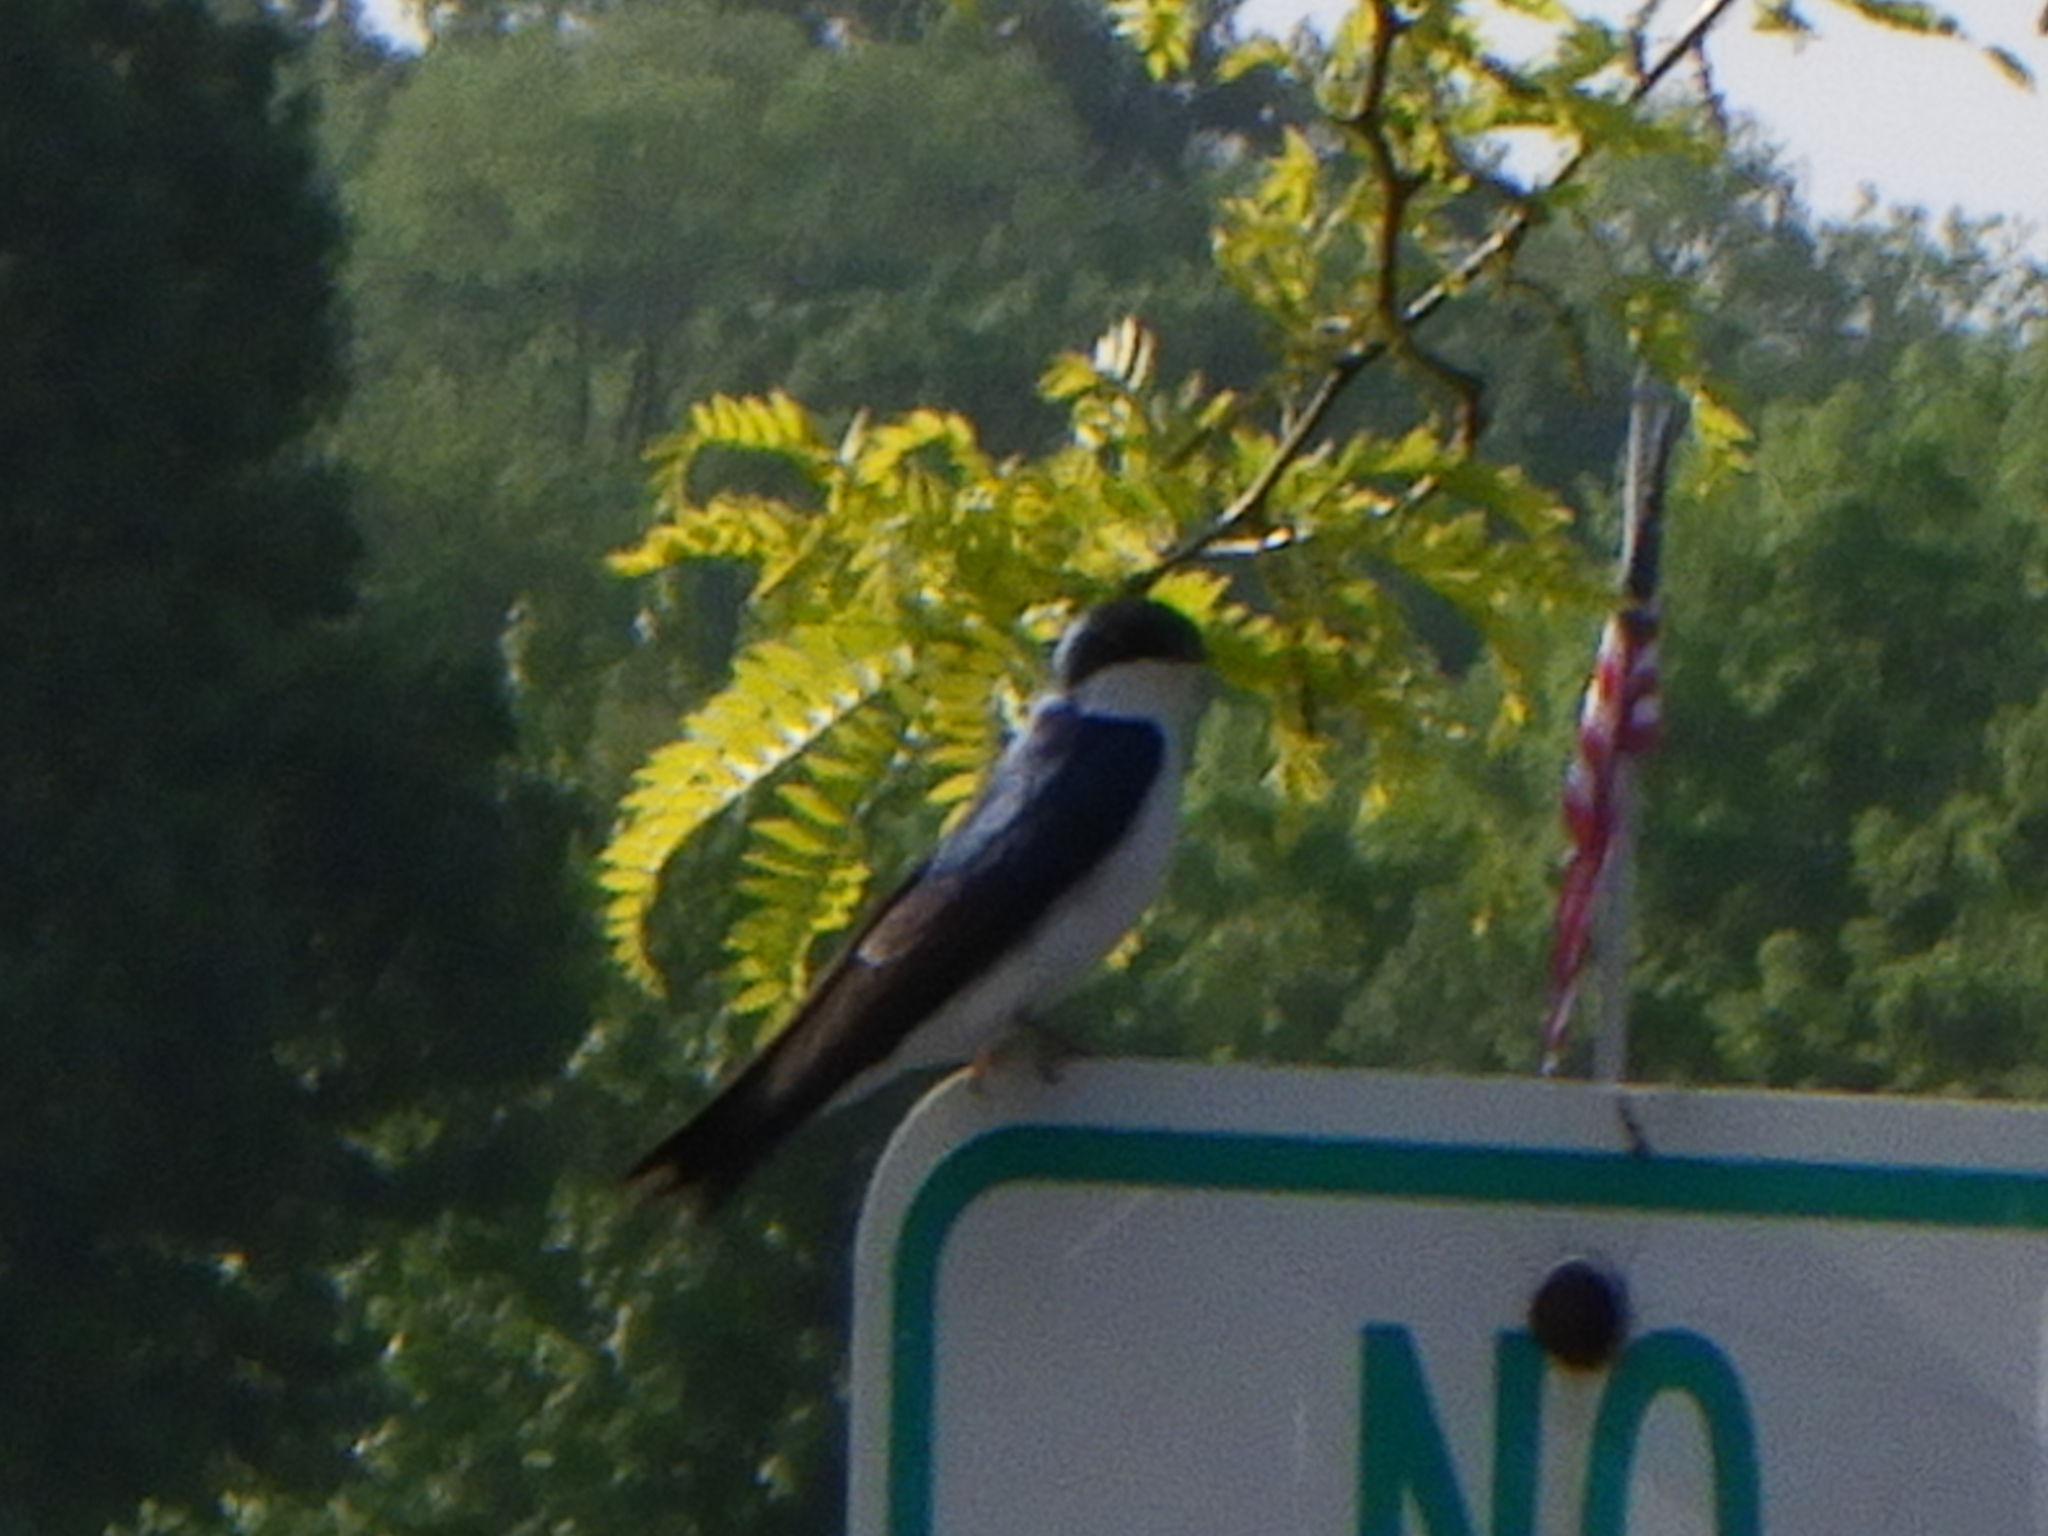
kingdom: Animalia
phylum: Chordata
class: Aves
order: Passeriformes
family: Hirundinidae
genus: Tachycineta
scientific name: Tachycineta bicolor
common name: Tree swallow
